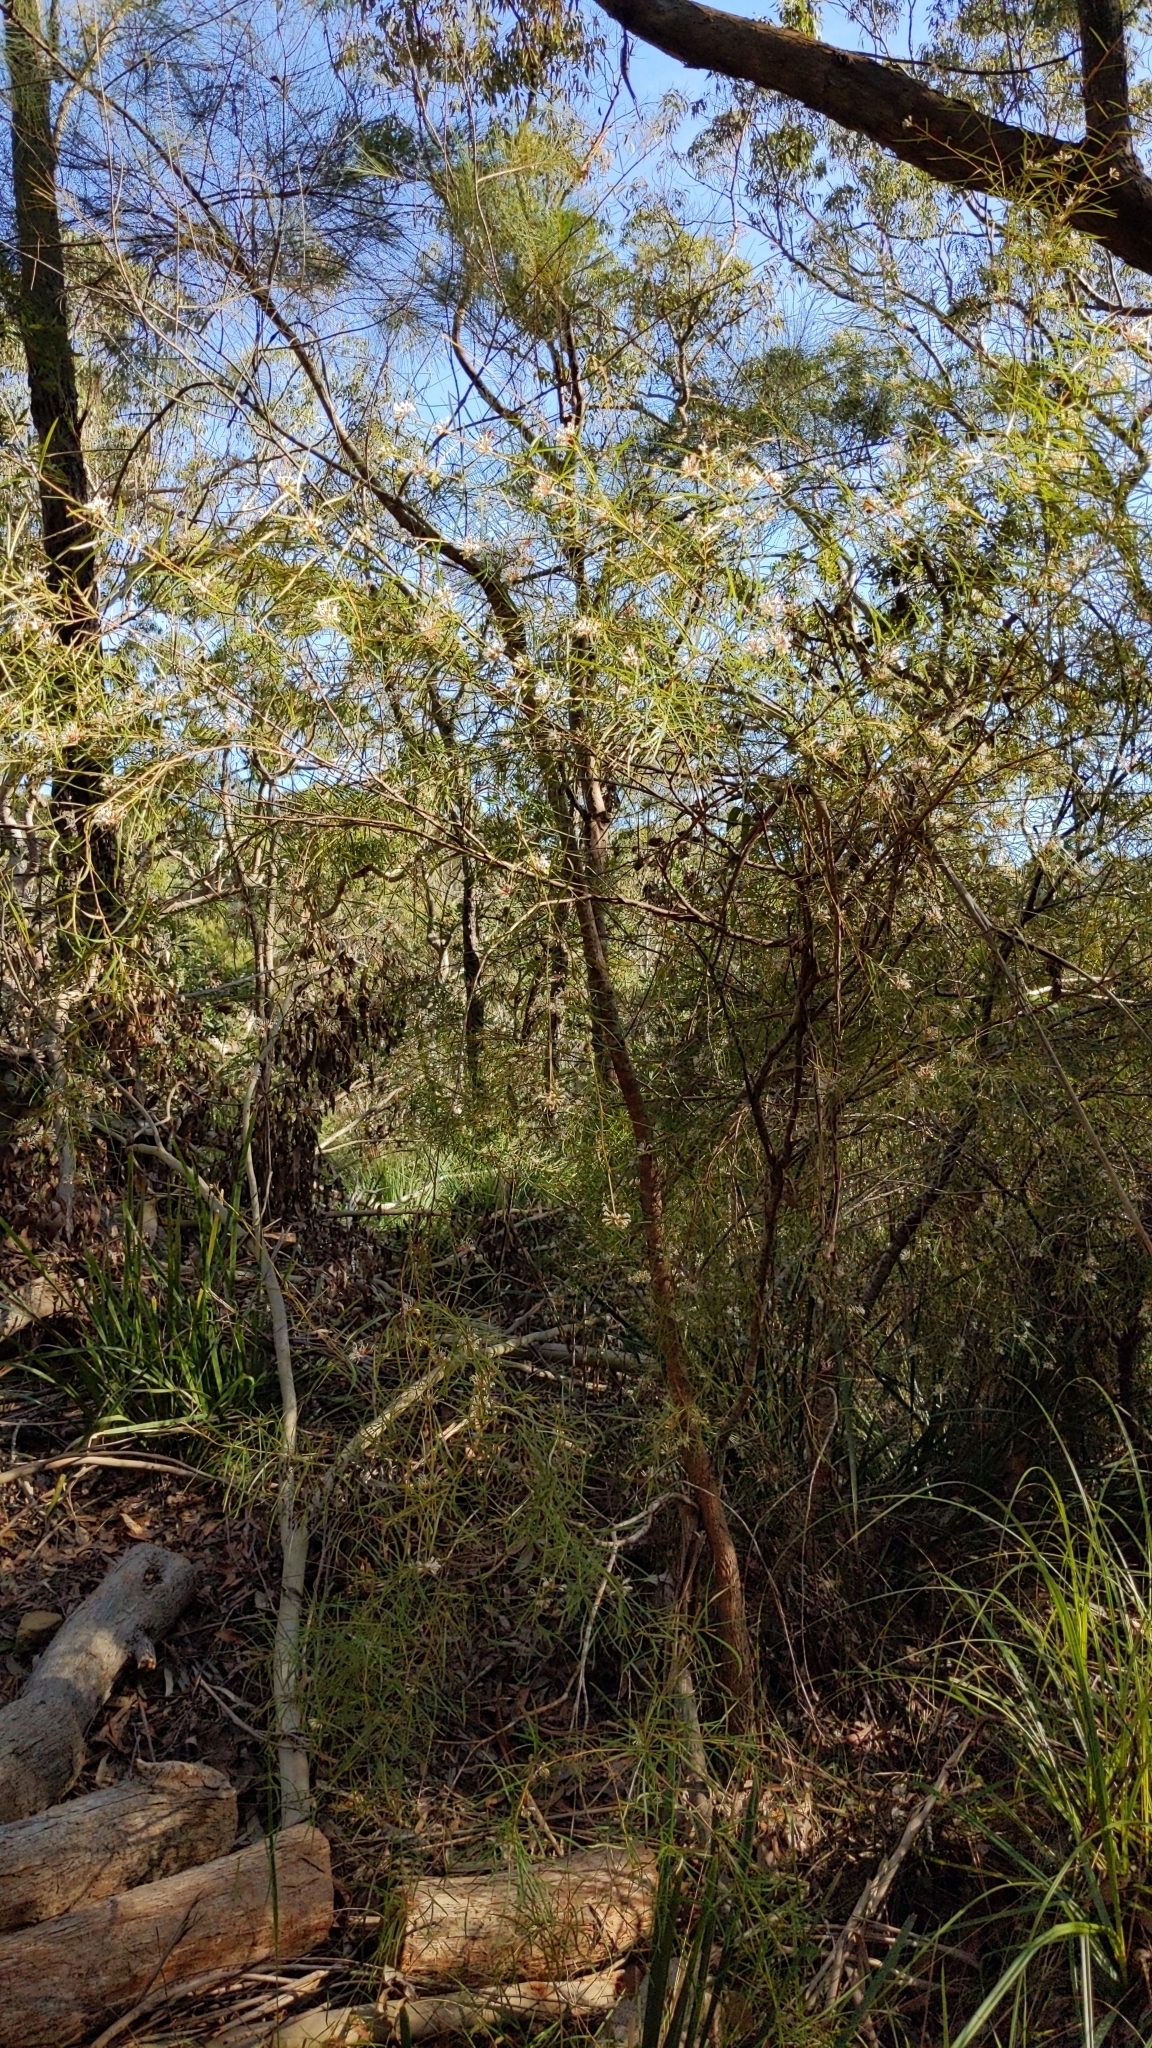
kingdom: Plantae
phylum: Tracheophyta
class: Magnoliopsida
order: Proteales
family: Proteaceae
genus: Grevillea
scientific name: Grevillea linearifolia
